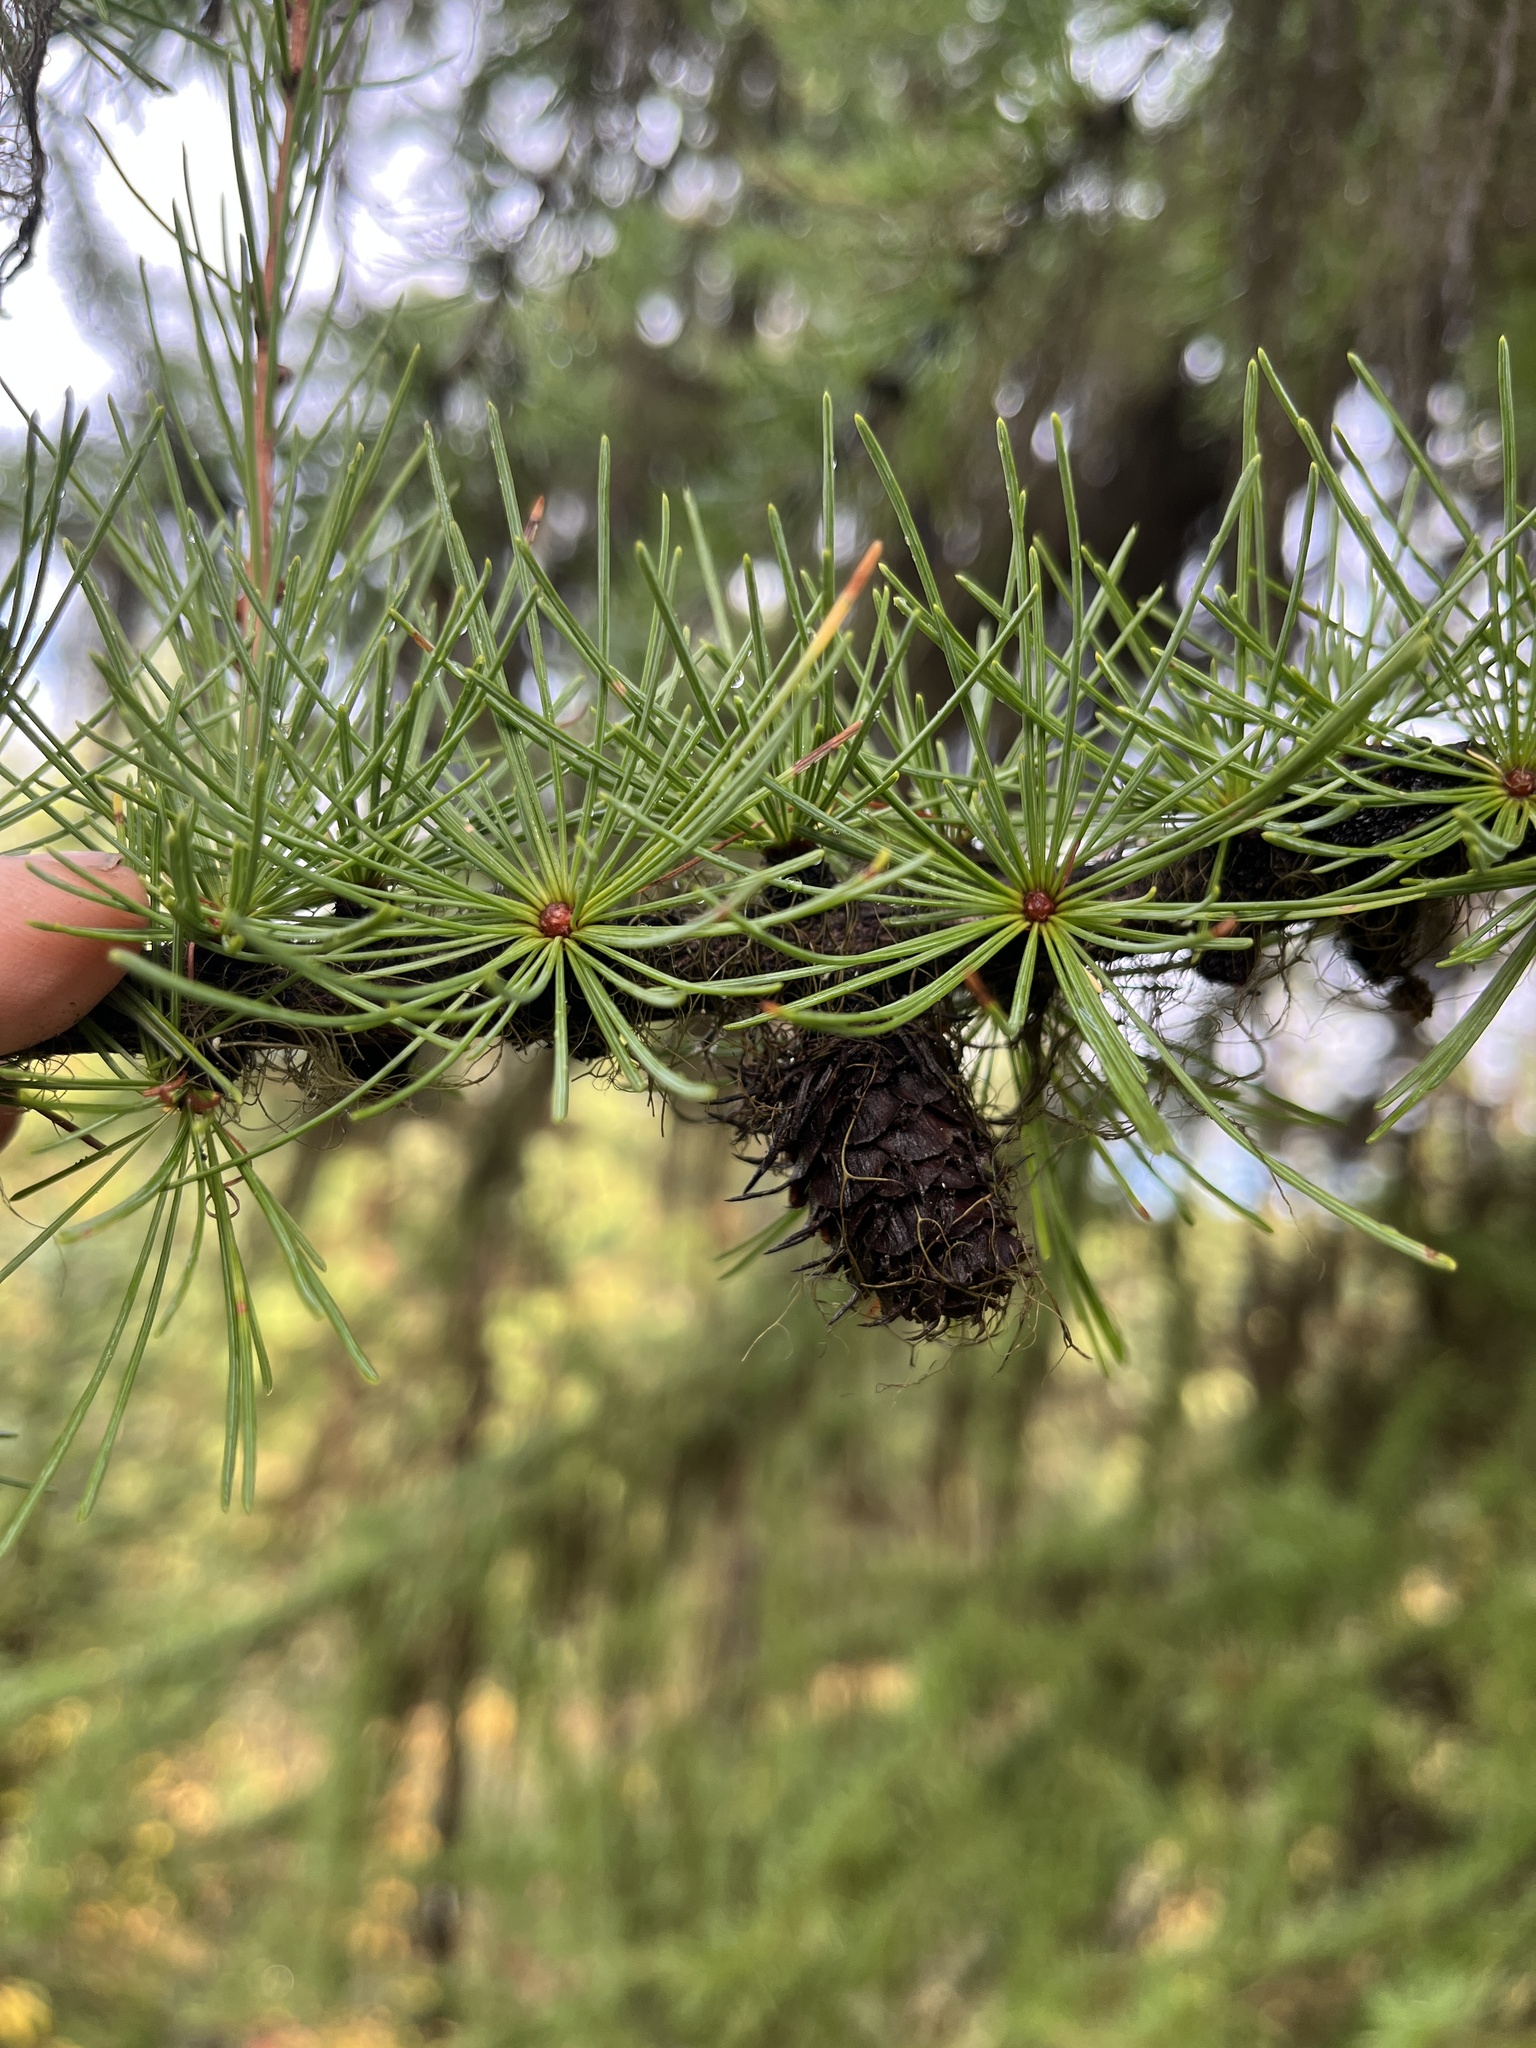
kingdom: Plantae
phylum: Tracheophyta
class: Pinopsida
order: Pinales
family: Pinaceae
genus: Larix
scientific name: Larix occidentalis
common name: Western larch
